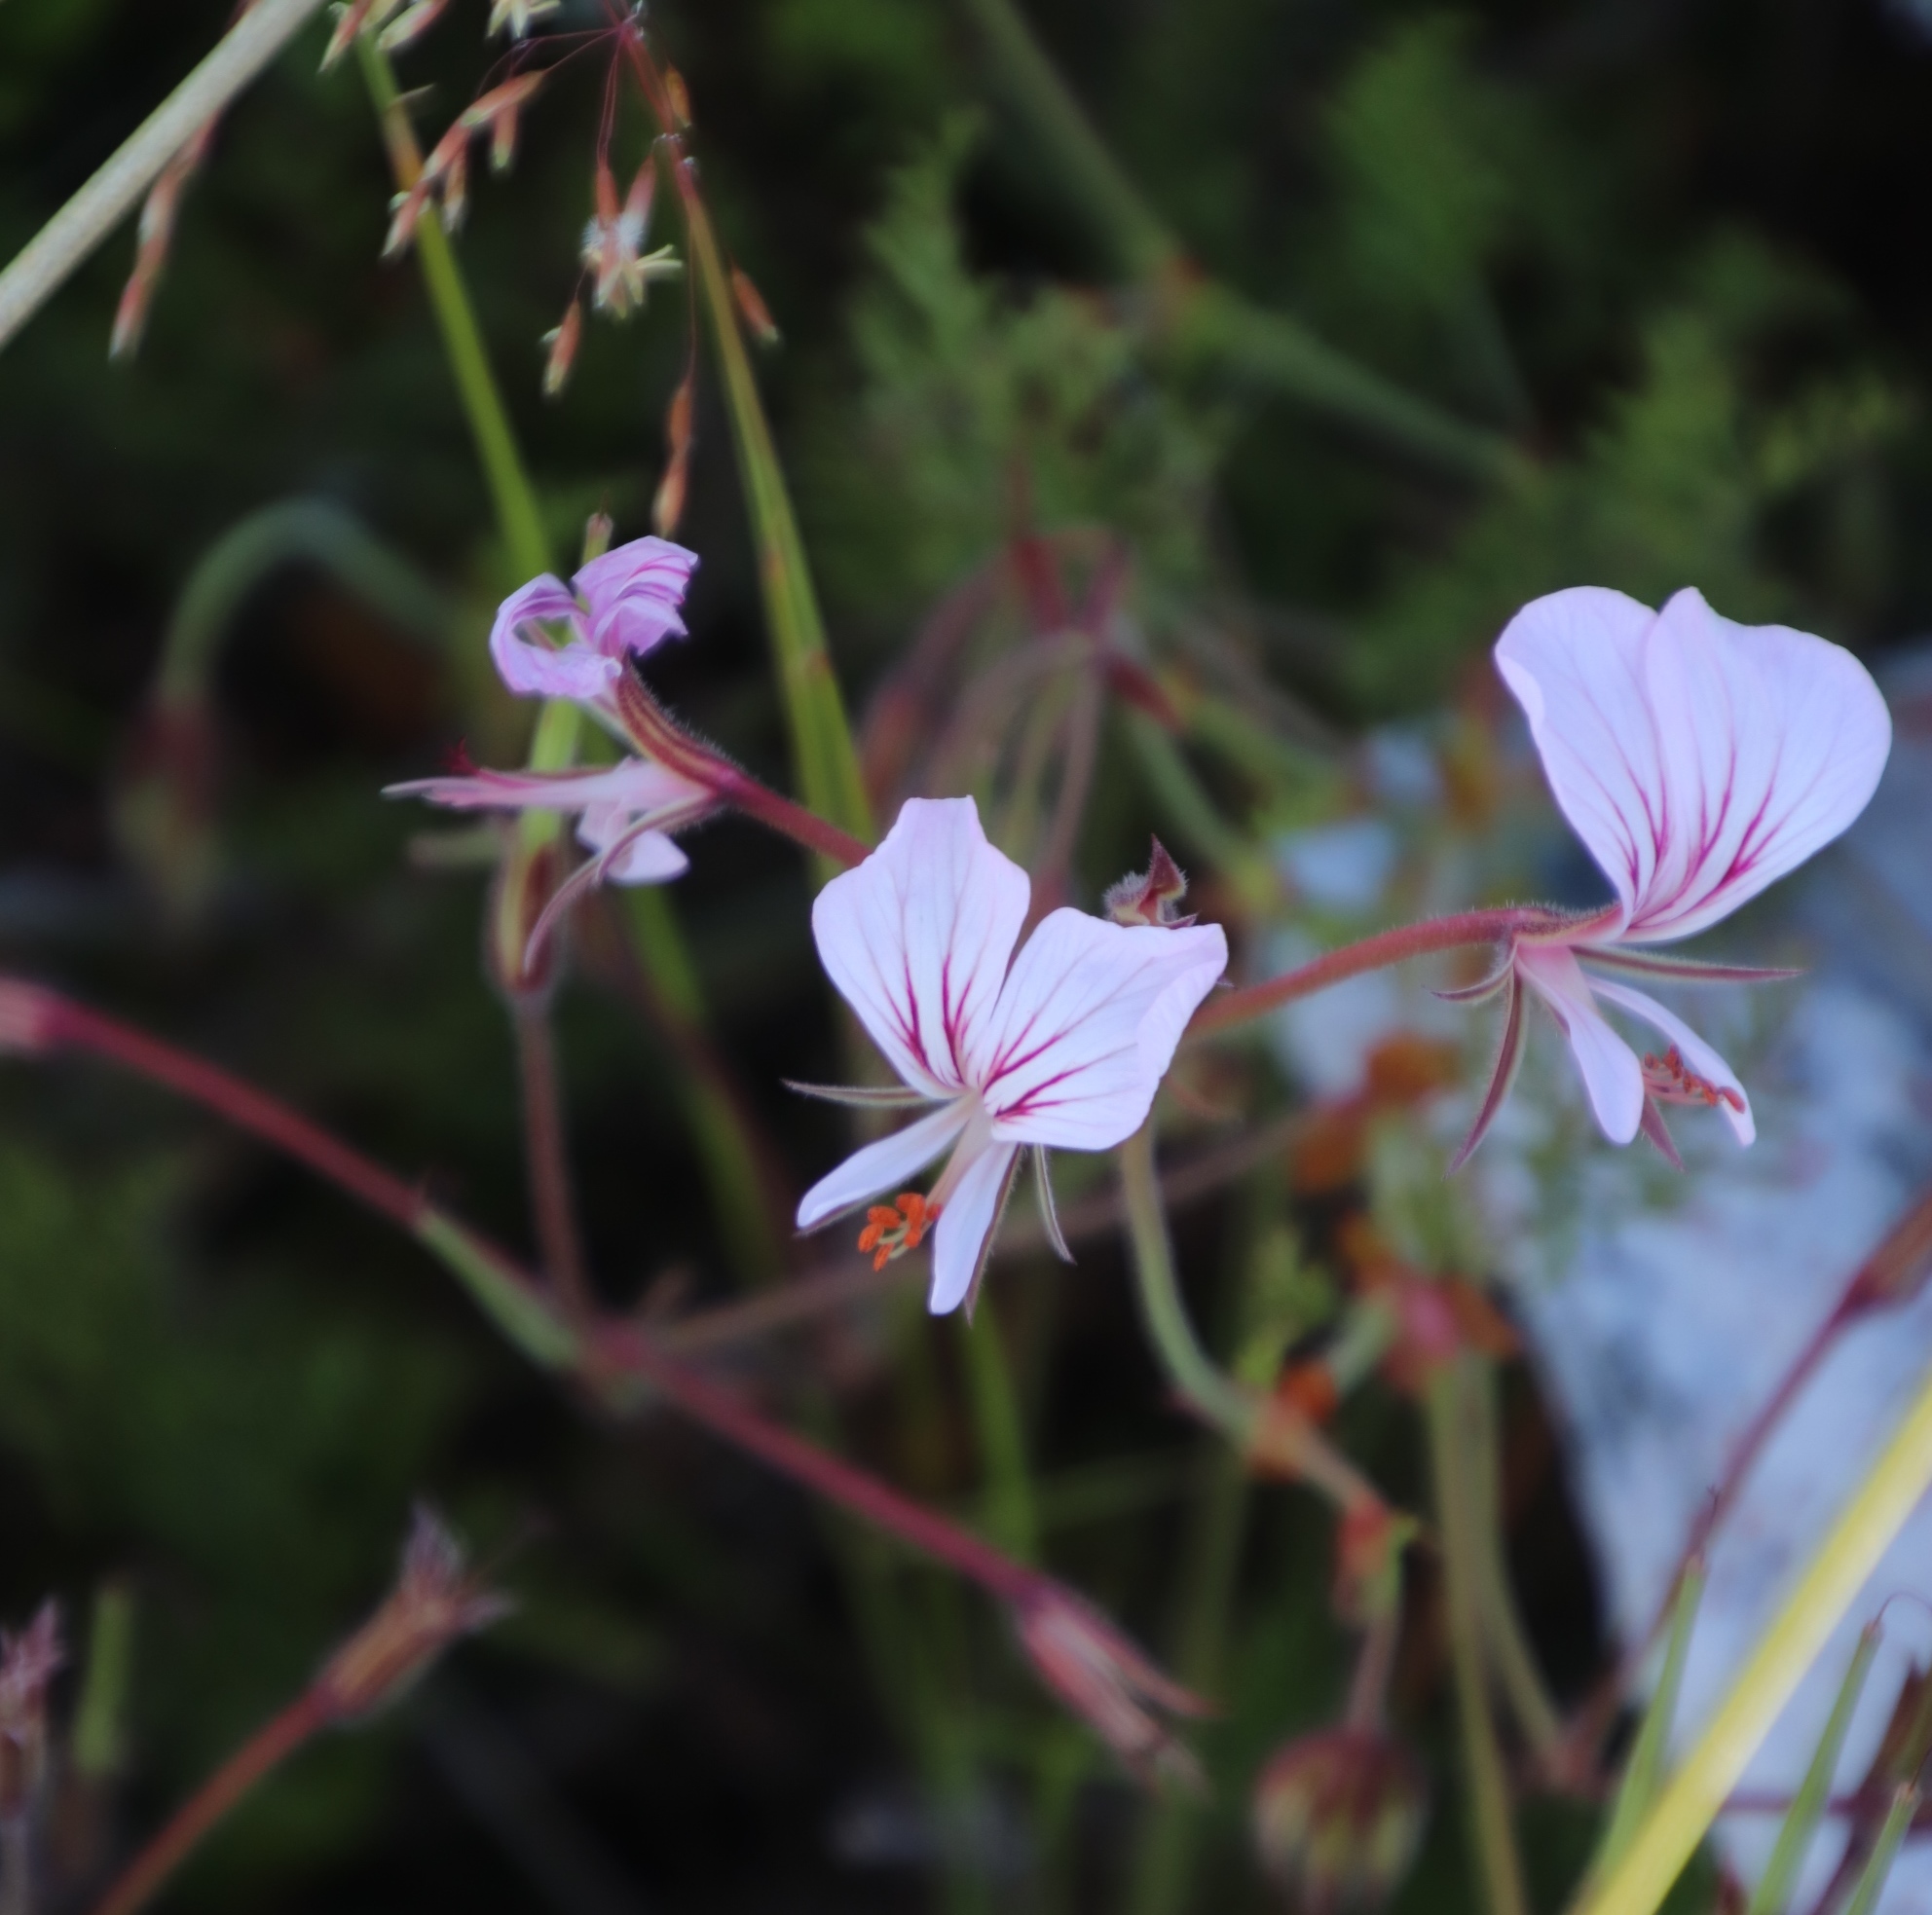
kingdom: Plantae
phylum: Tracheophyta
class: Magnoliopsida
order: Geraniales
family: Geraniaceae
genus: Pelargonium
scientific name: Pelargonium longicaule
